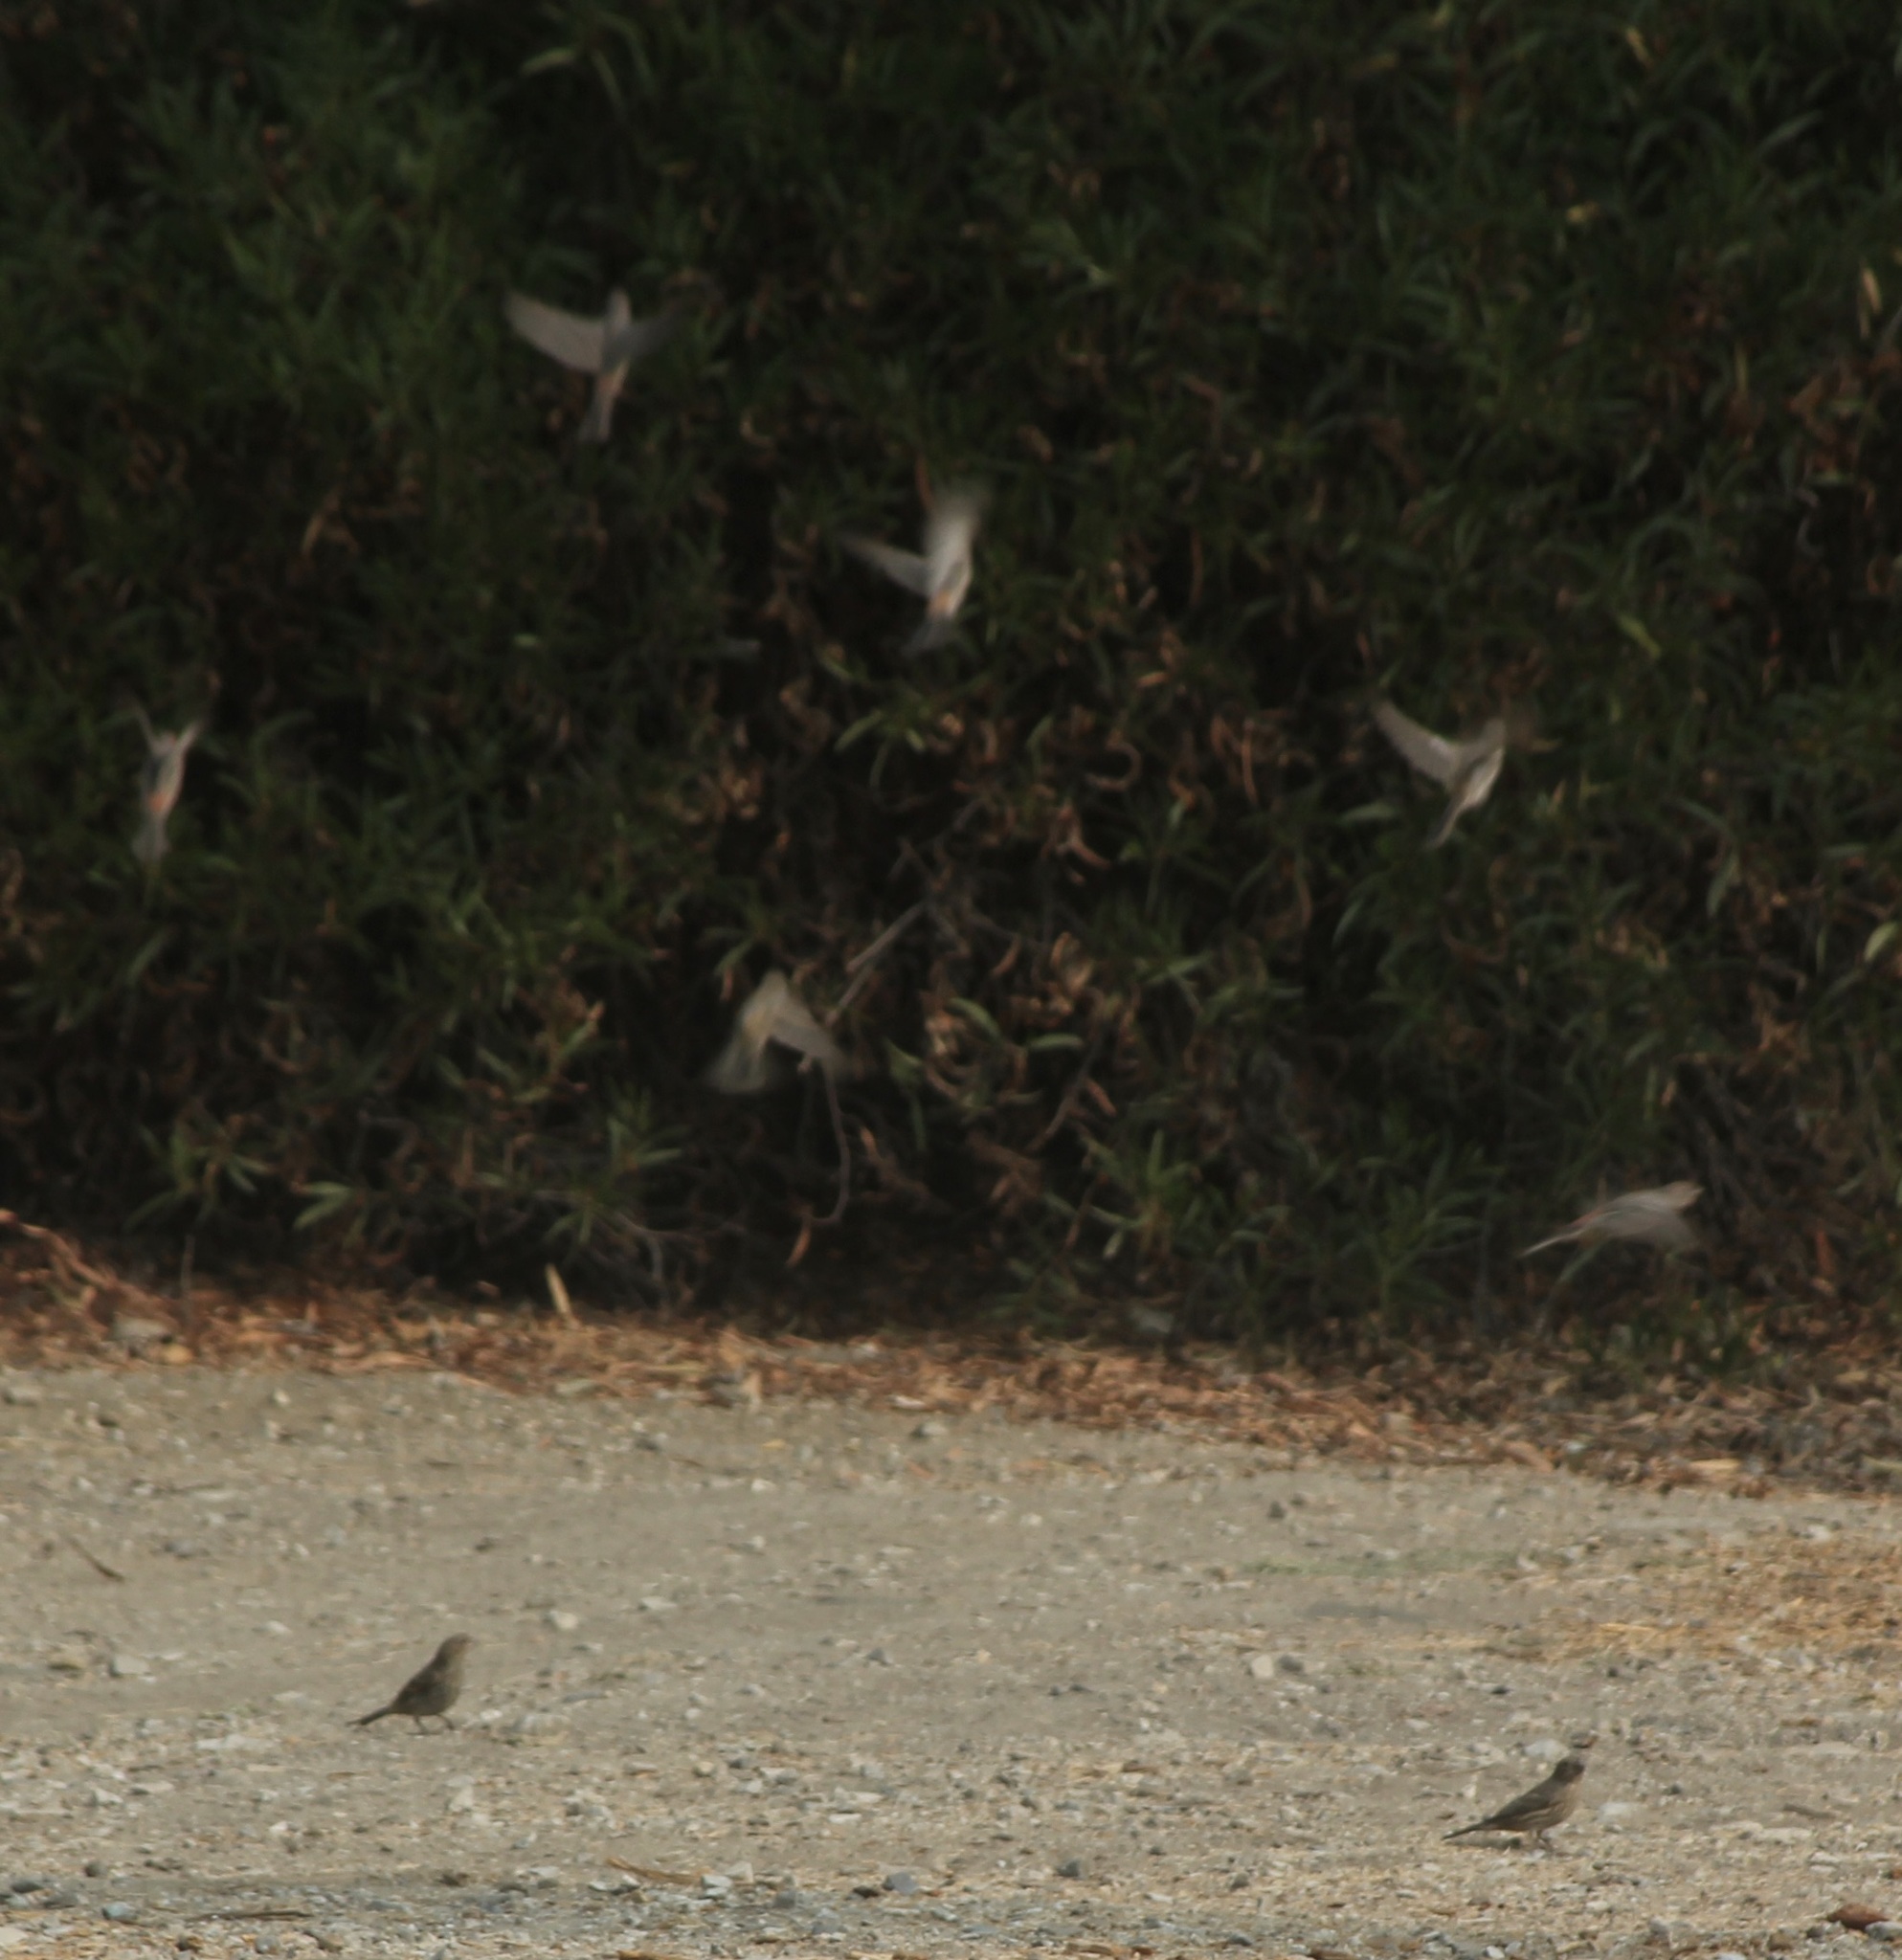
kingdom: Animalia
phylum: Chordata
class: Aves
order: Passeriformes
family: Fringillidae
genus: Haemorhous
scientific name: Haemorhous mexicanus
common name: House finch
